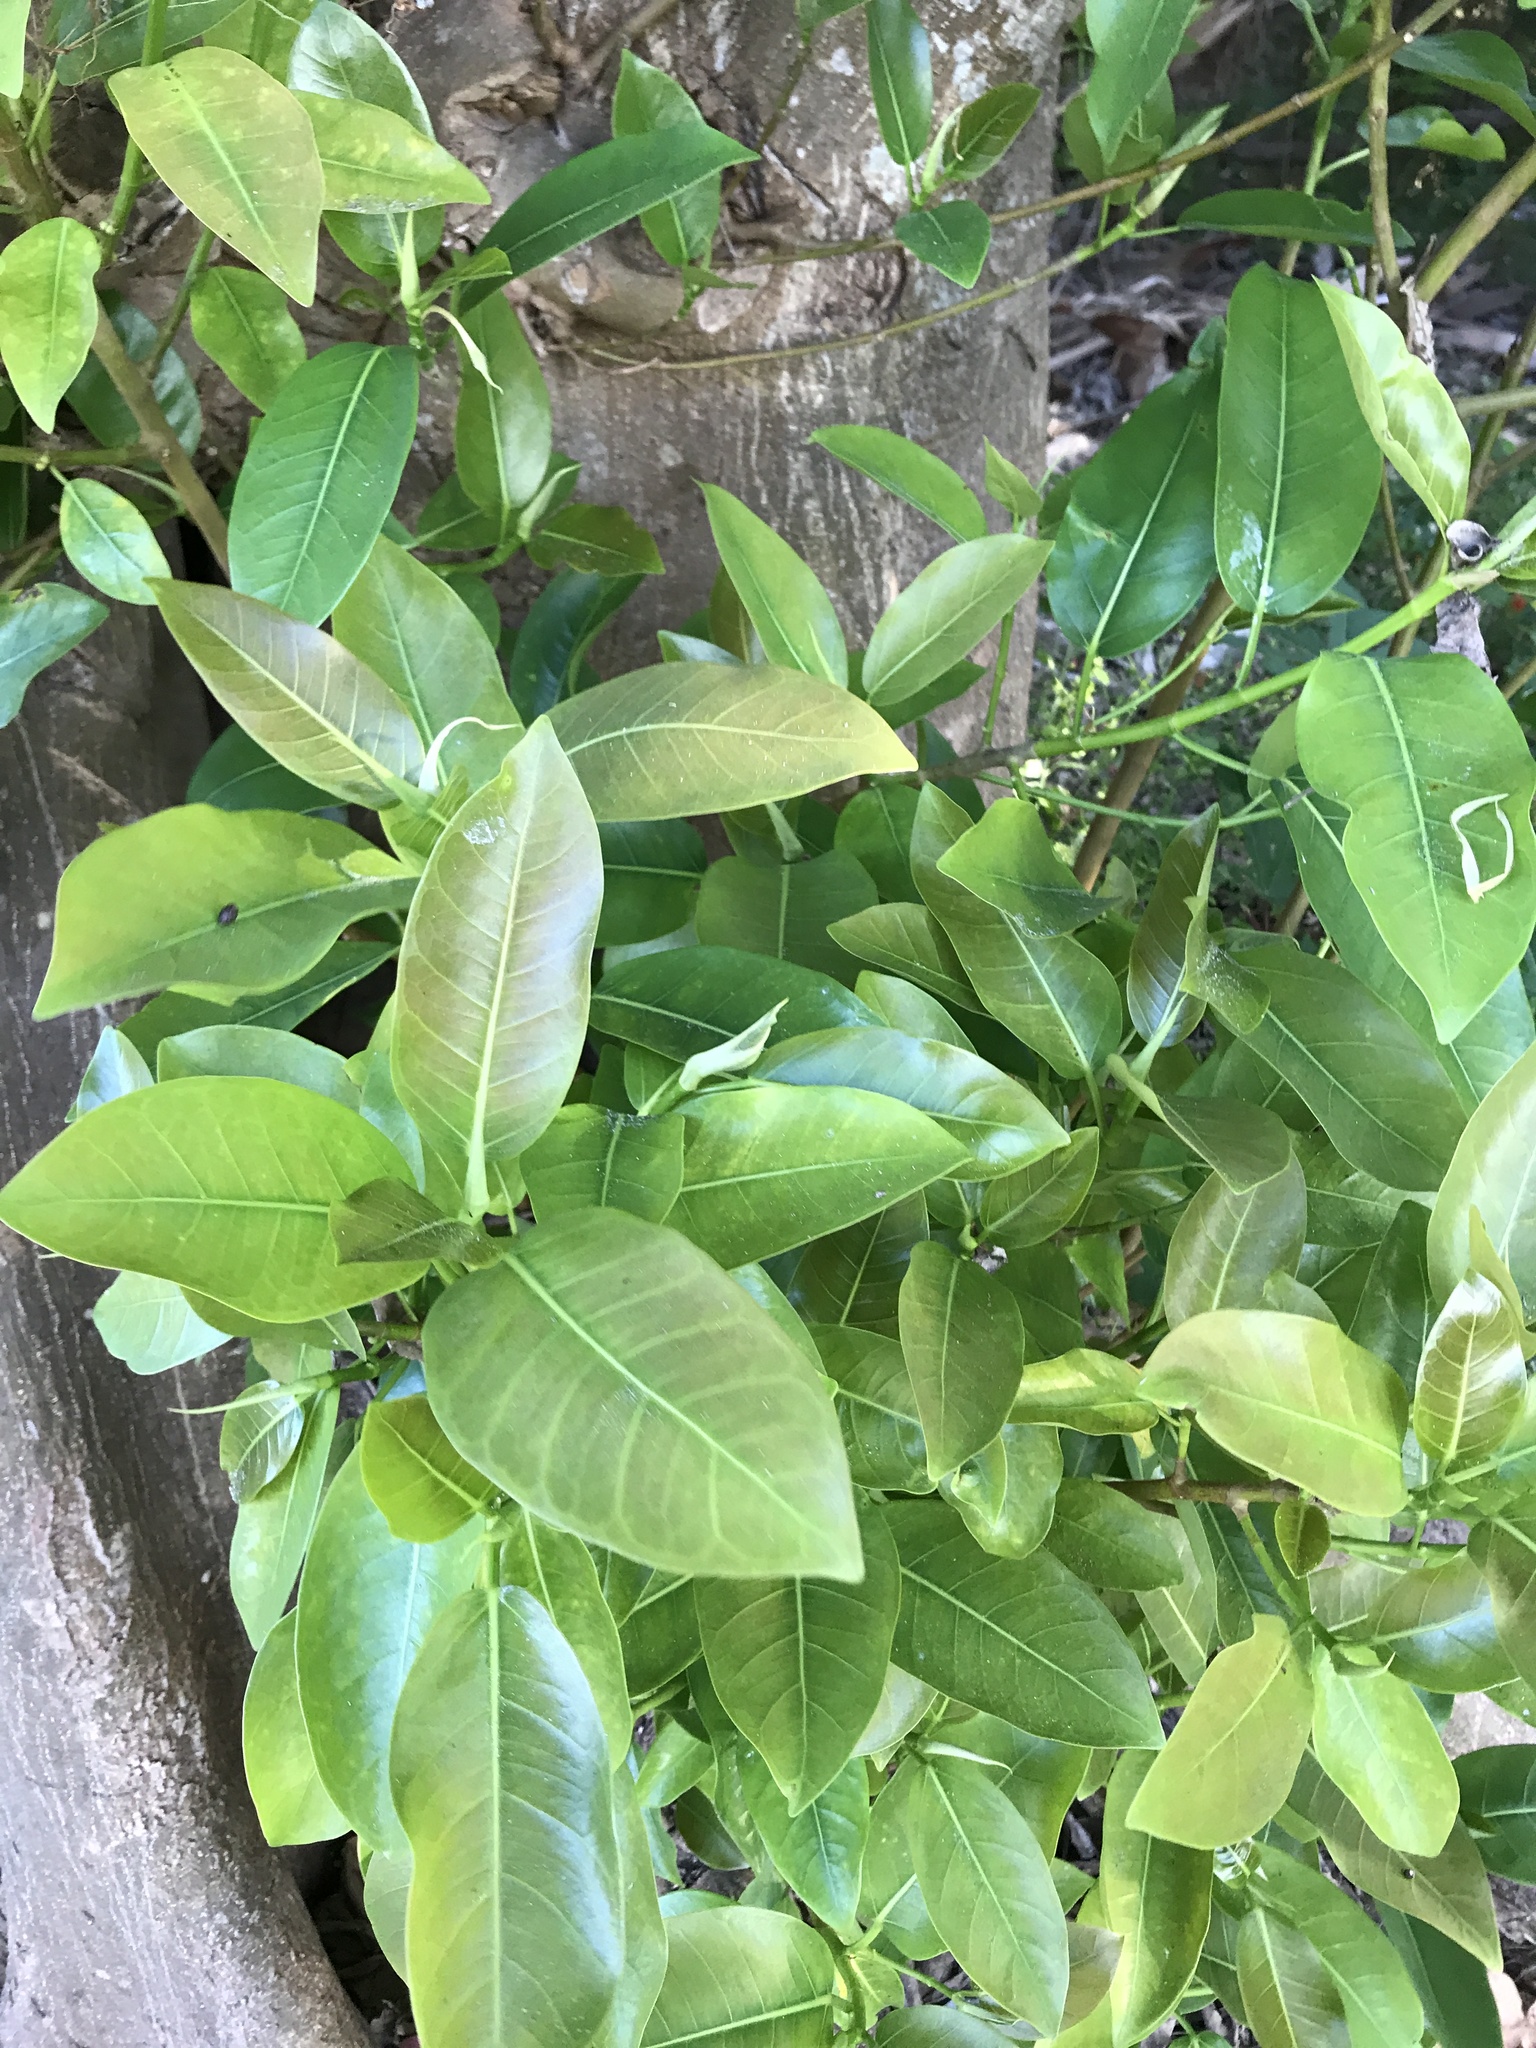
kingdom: Plantae
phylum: Tracheophyta
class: Magnoliopsida
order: Rosales
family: Moraceae
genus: Ficus
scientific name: Ficus aurea
